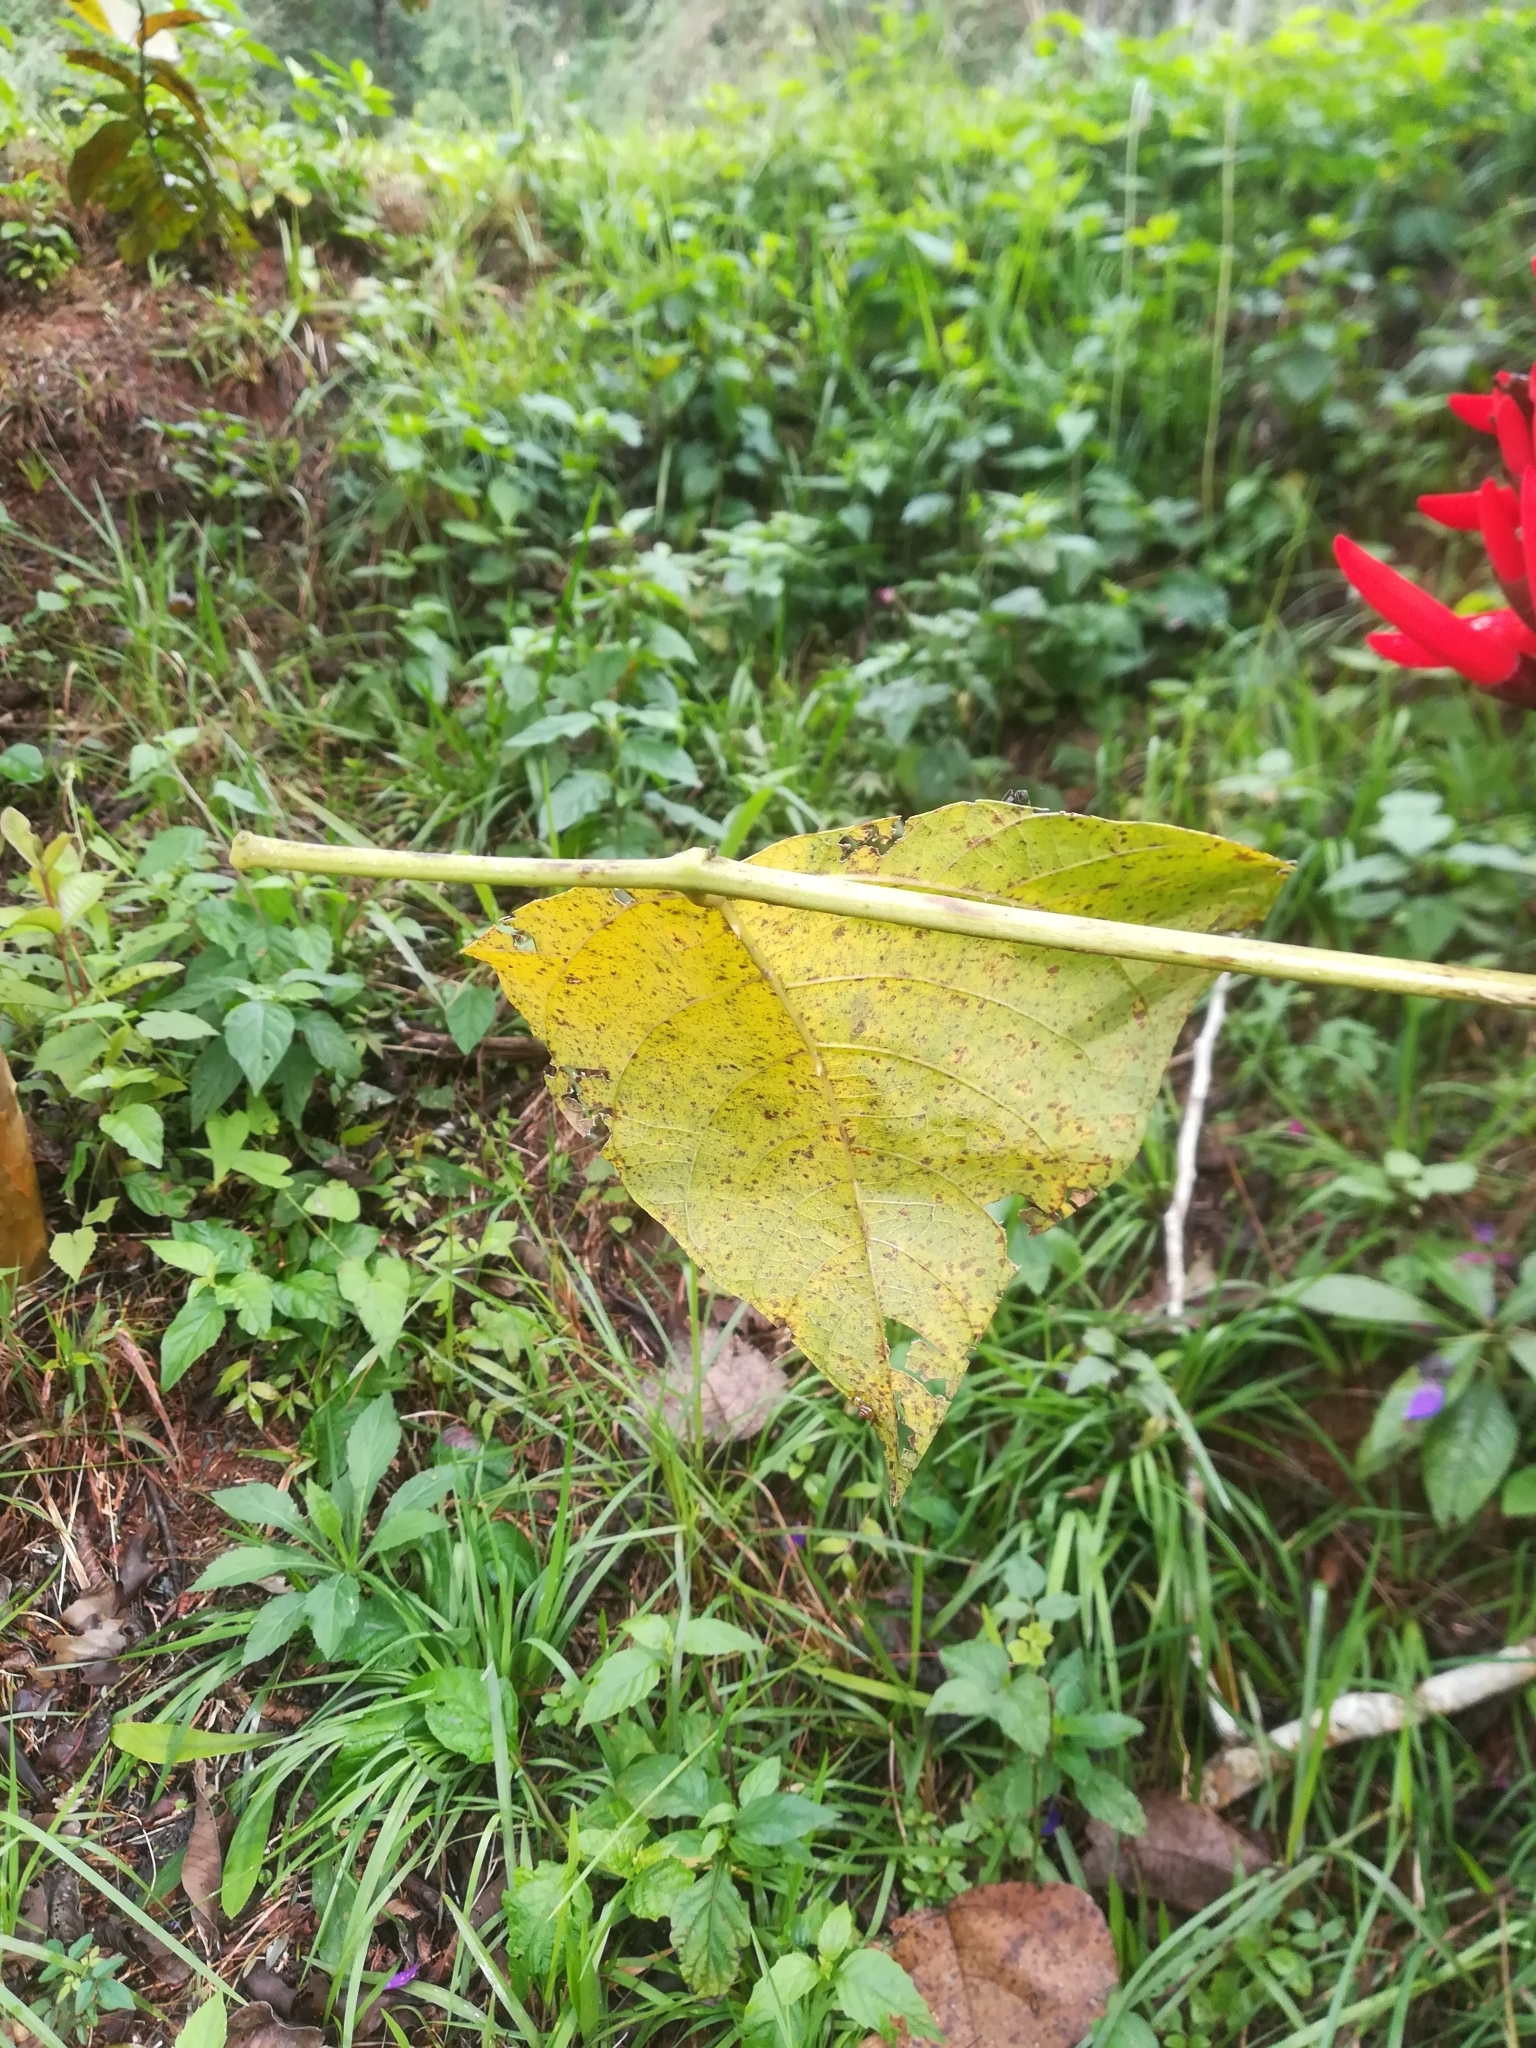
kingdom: Plantae
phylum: Tracheophyta
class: Magnoliopsida
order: Fabales
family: Fabaceae
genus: Erythrina
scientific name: Erythrina flabelliformis
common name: Chilicote
